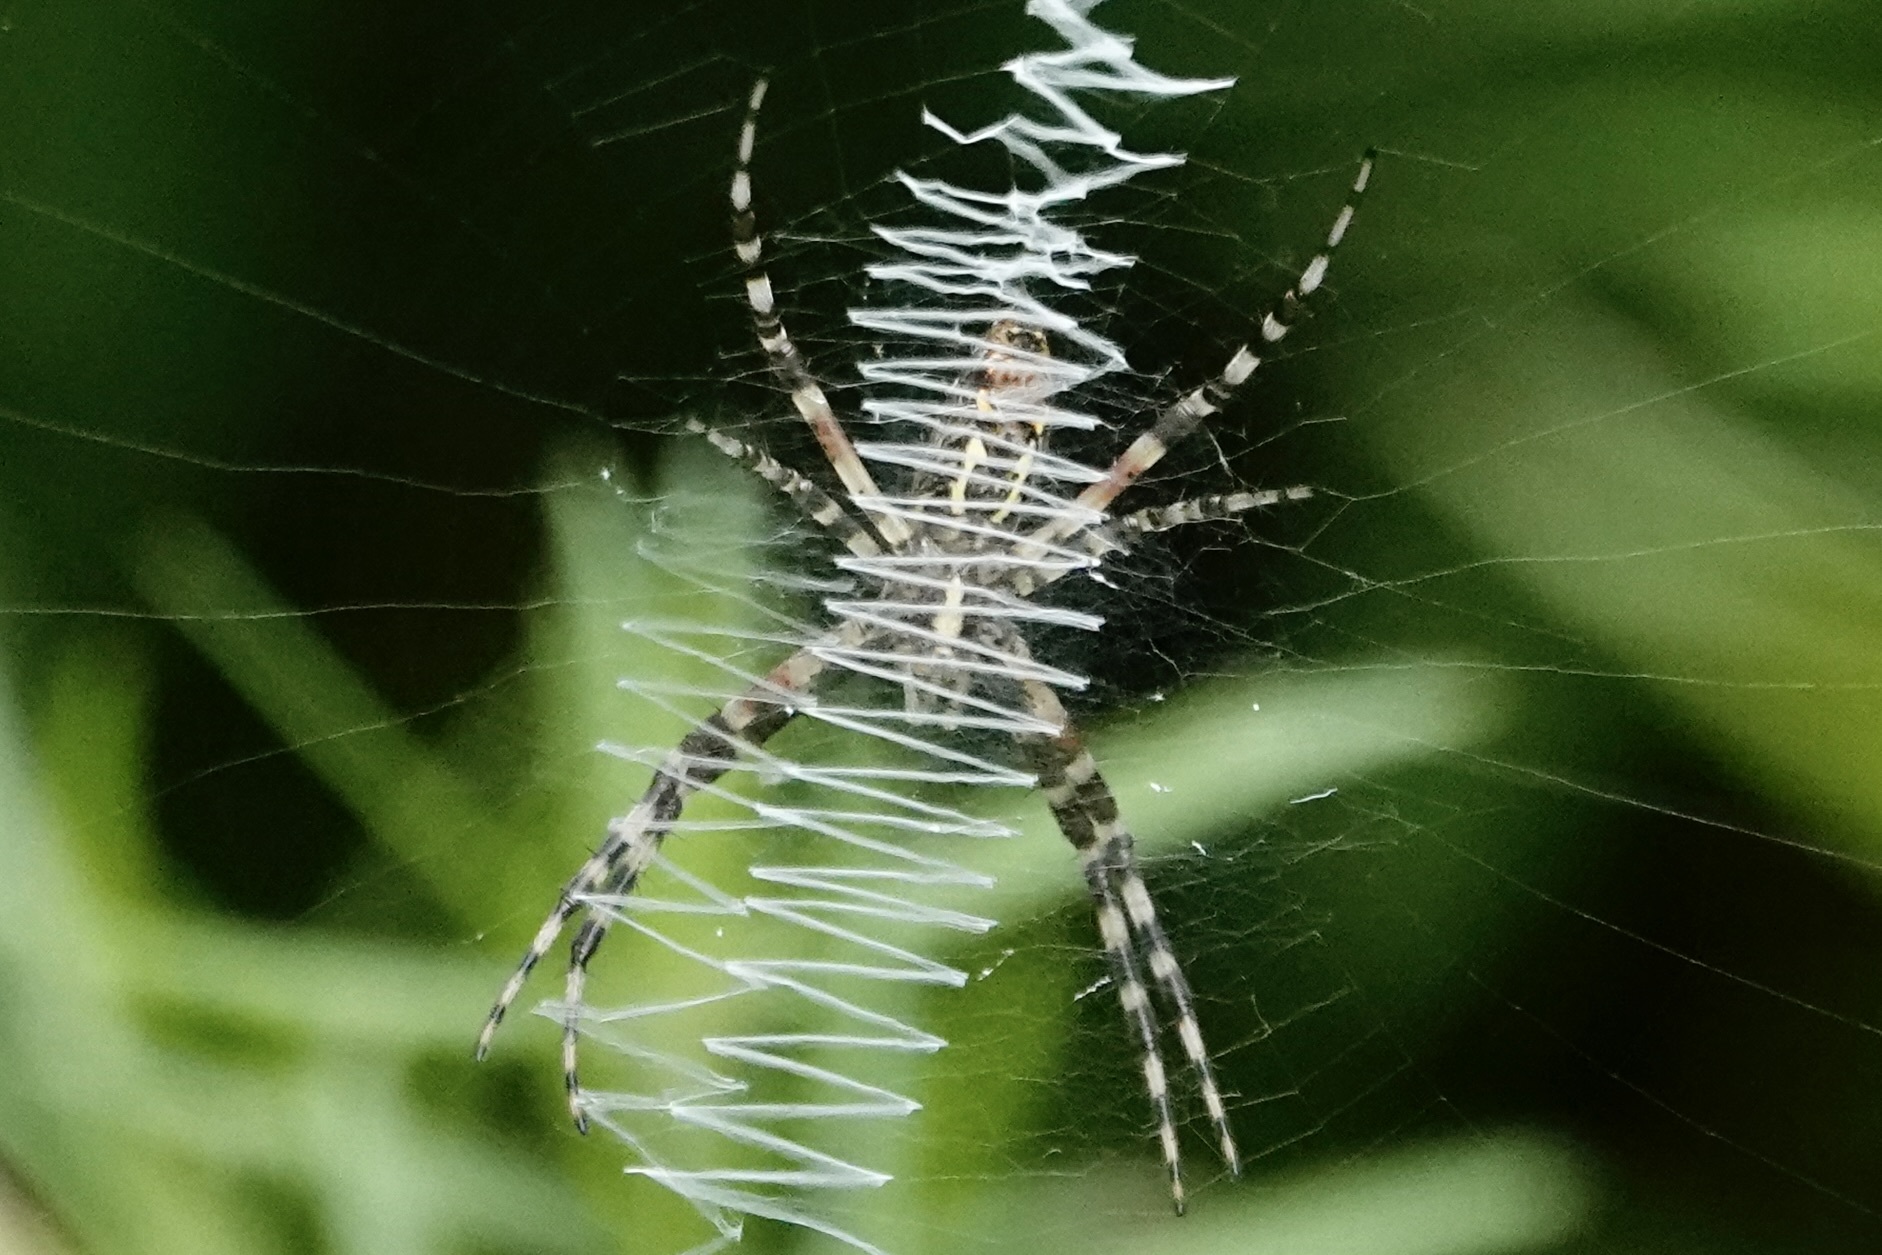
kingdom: Animalia
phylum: Arthropoda
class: Arachnida
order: Araneae
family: Araneidae
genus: Argiope
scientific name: Argiope aurantia
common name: Orb weavers
